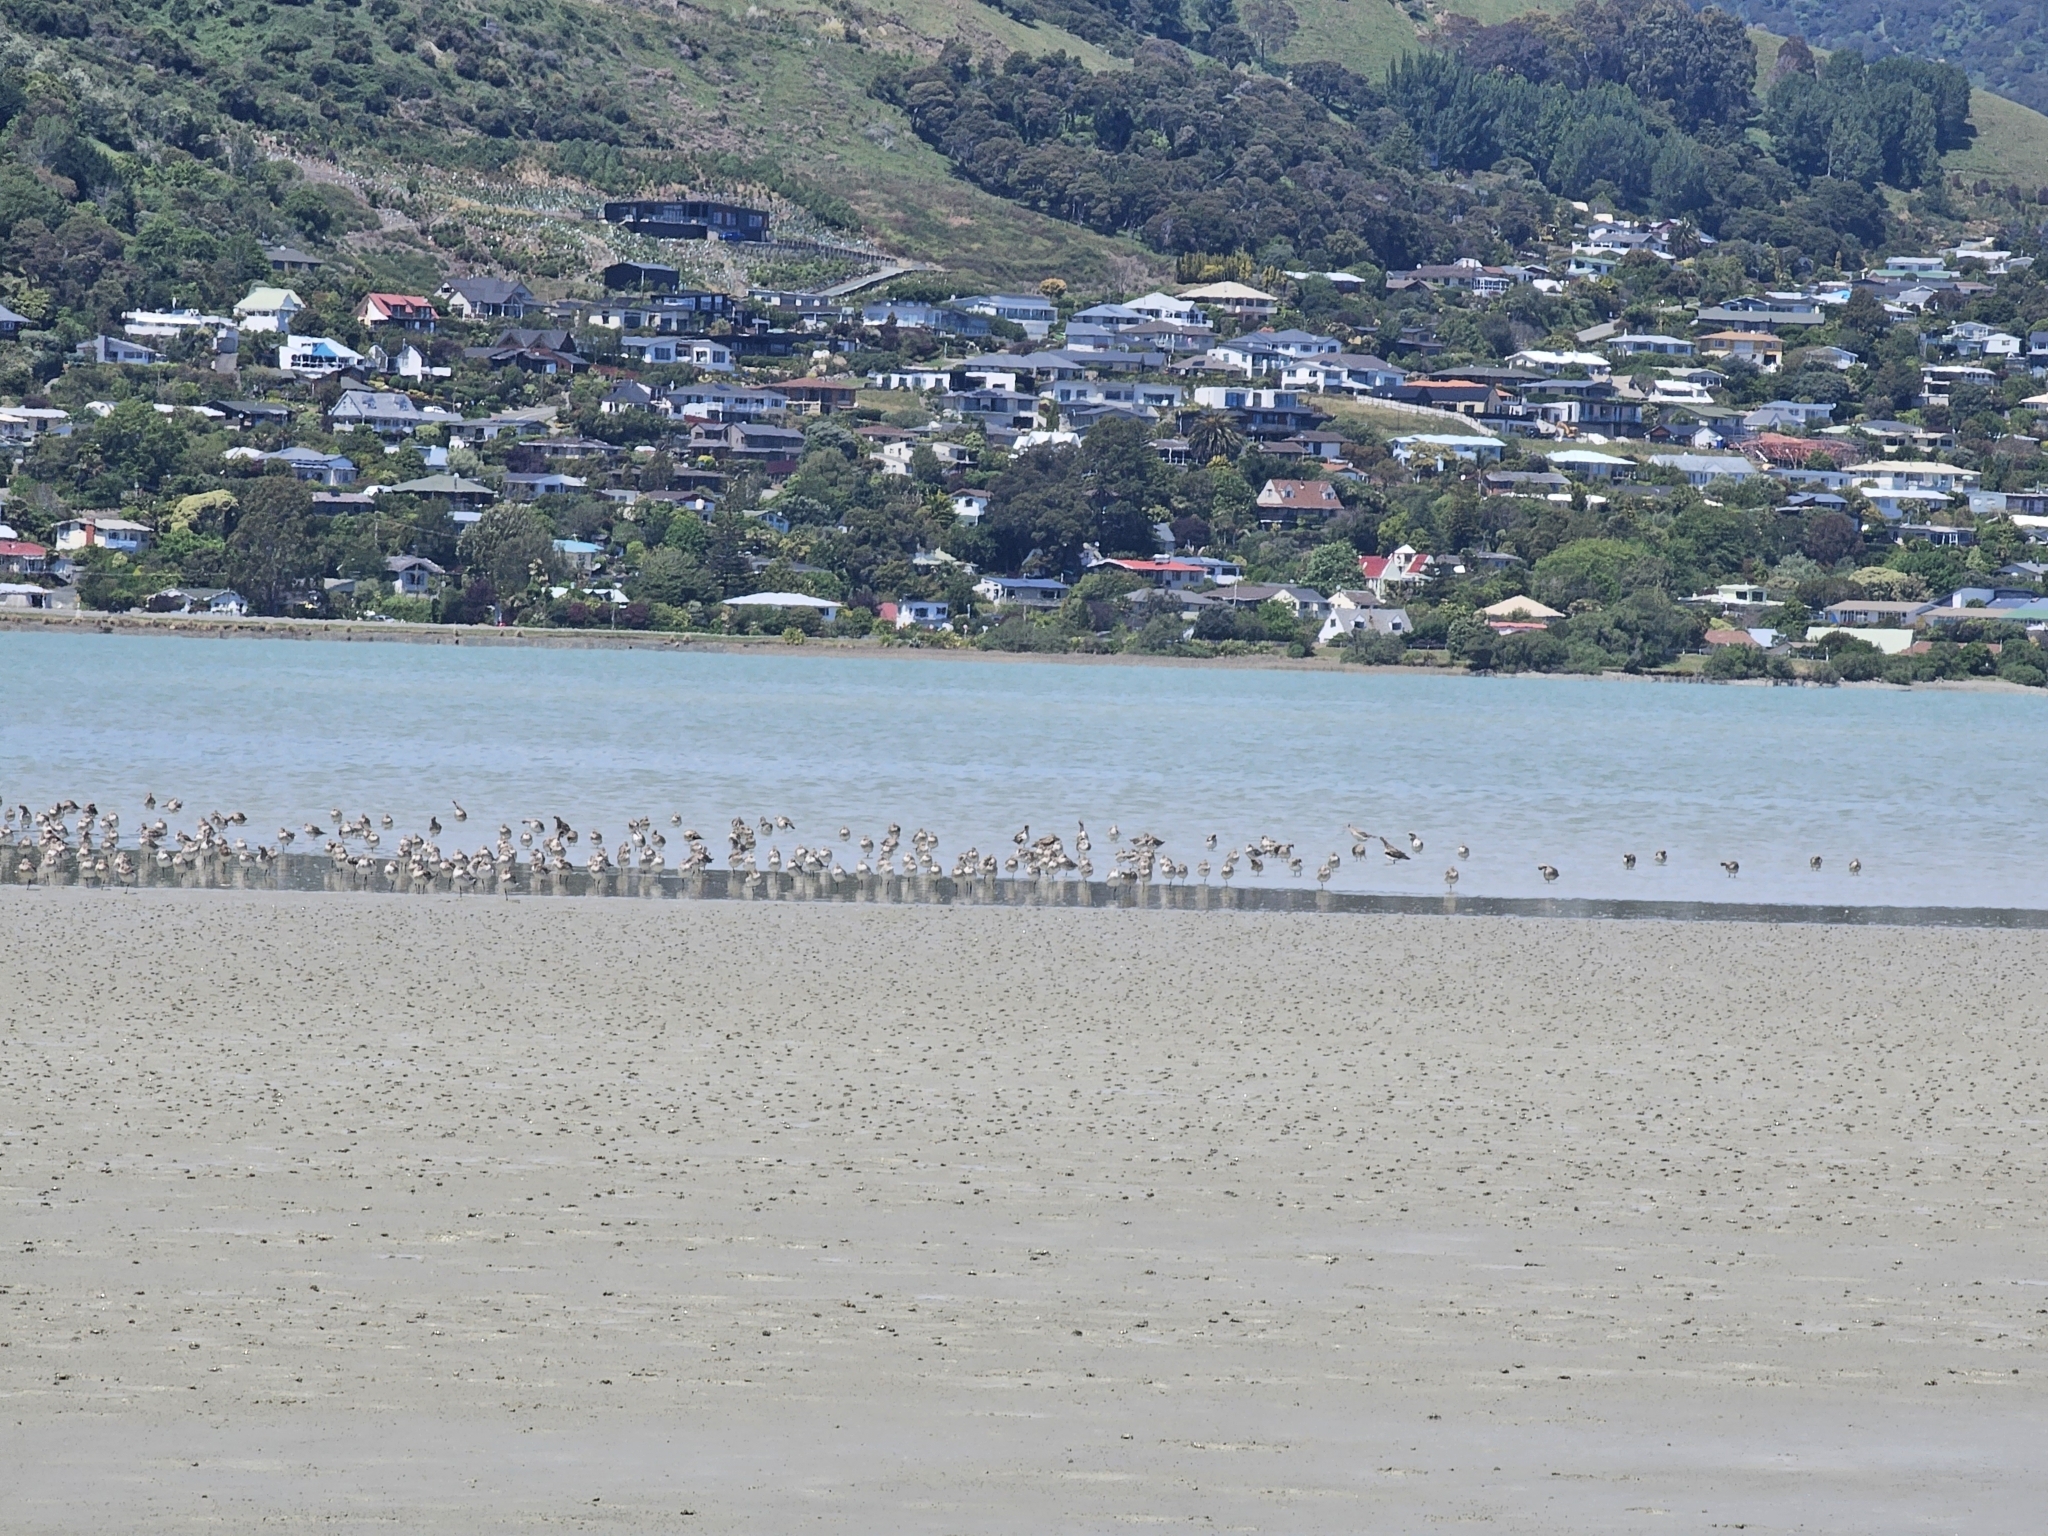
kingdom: Animalia
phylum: Chordata
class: Aves
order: Charadriiformes
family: Scolopacidae
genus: Limosa
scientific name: Limosa lapponica
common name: Bar-tailed godwit
